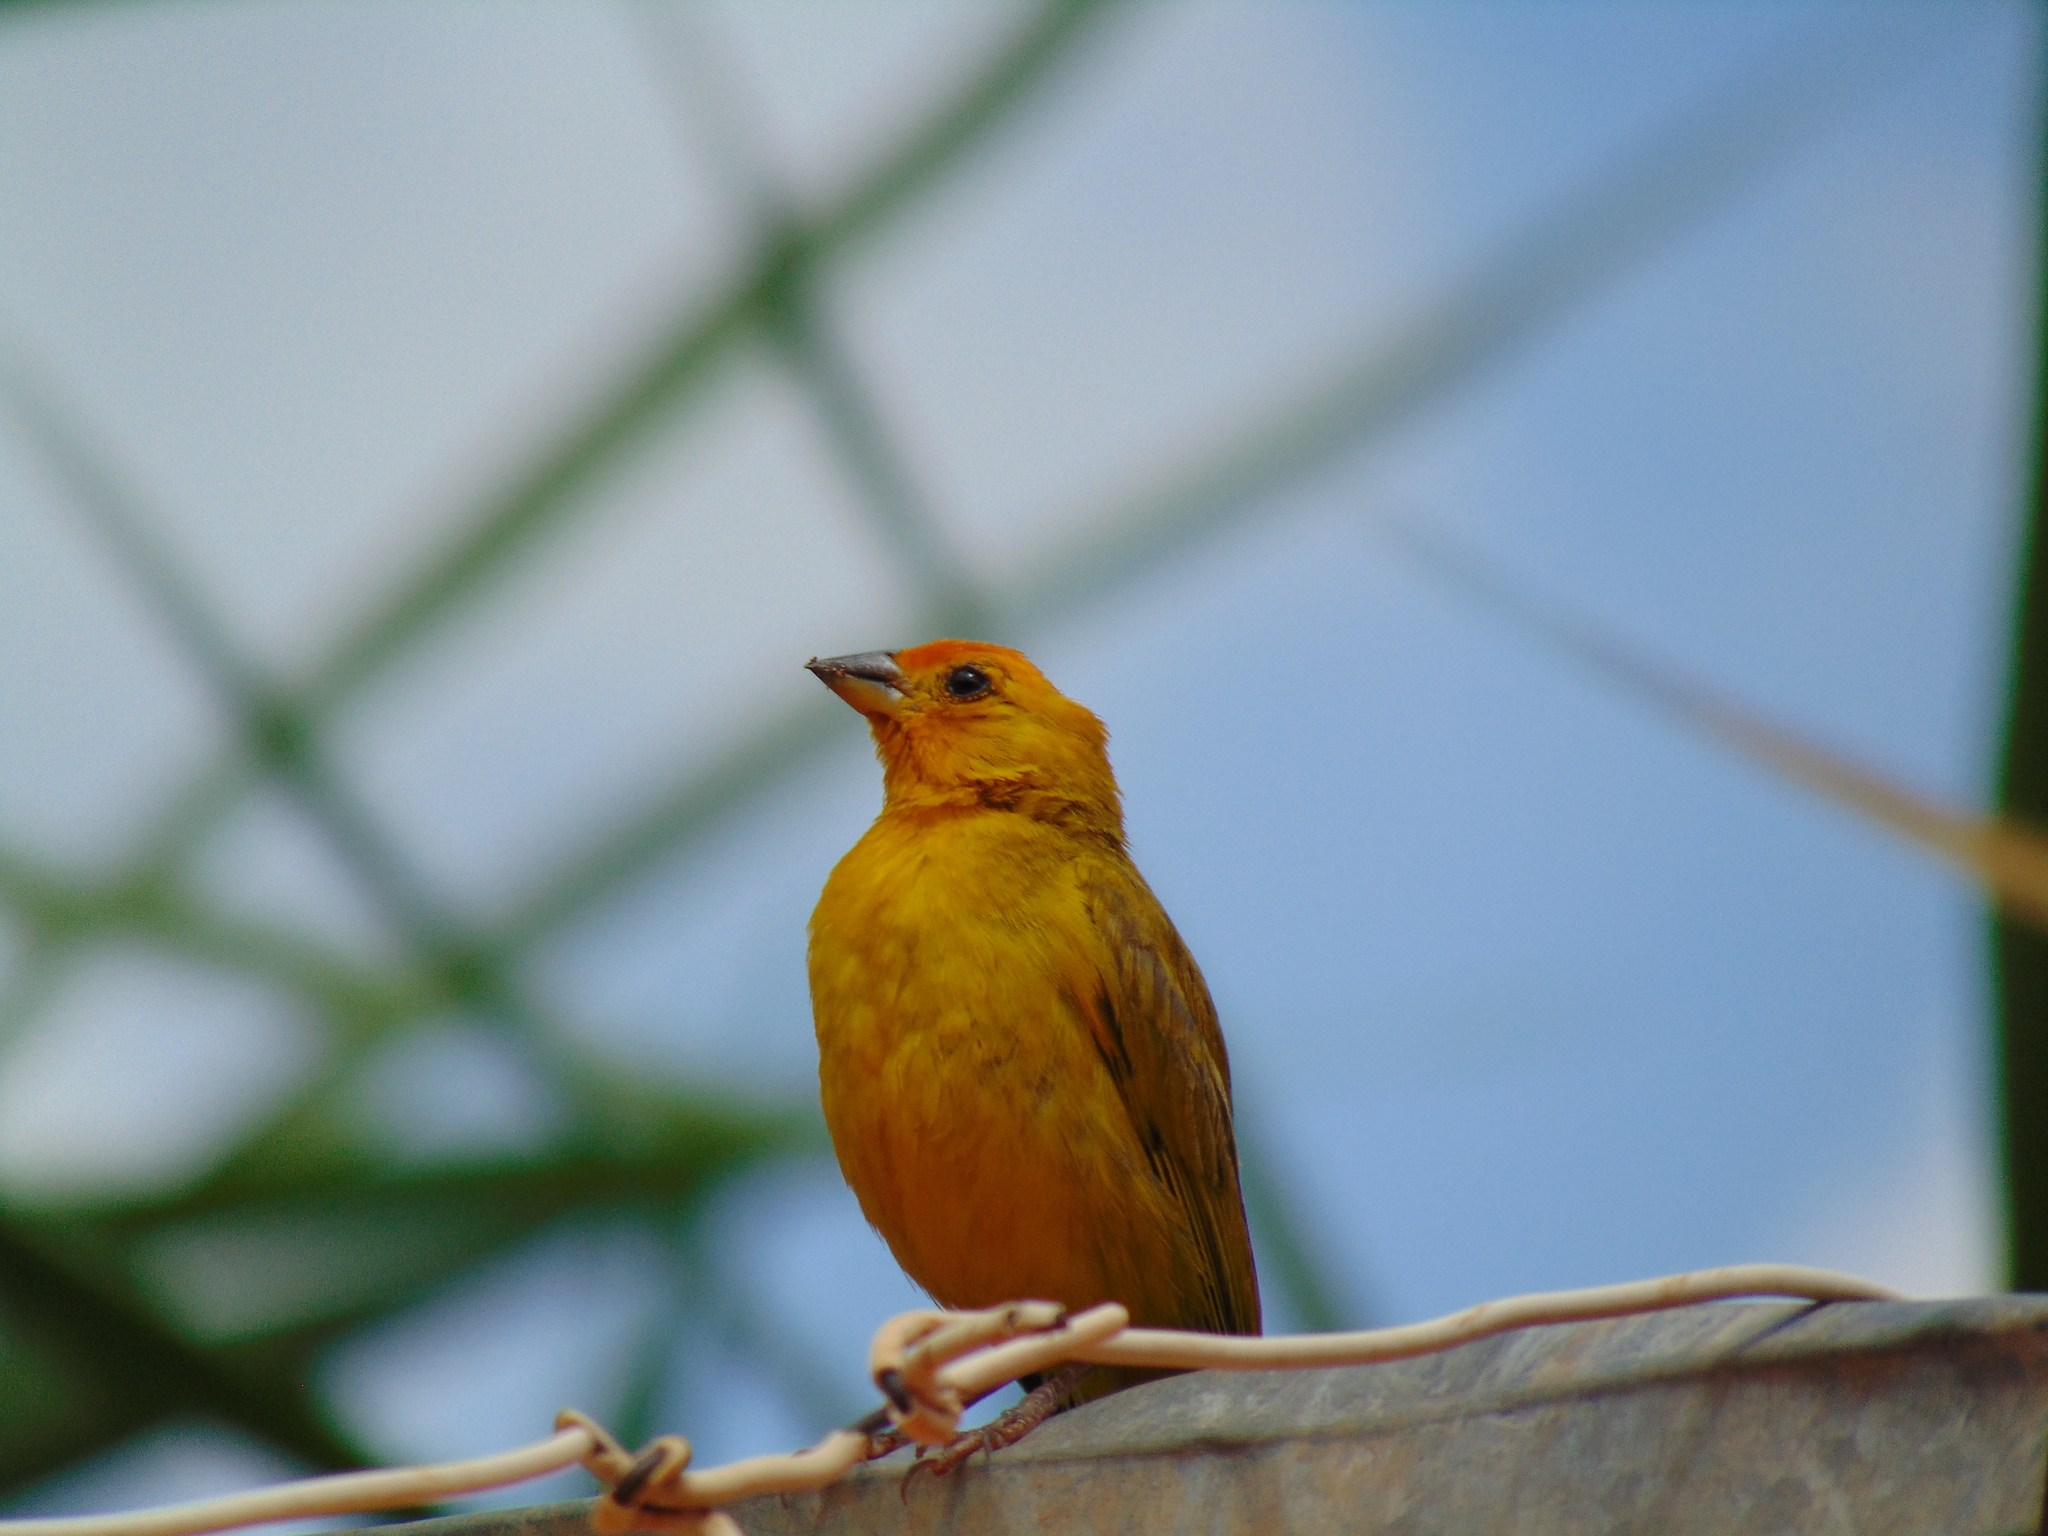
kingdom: Animalia
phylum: Chordata
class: Aves
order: Passeriformes
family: Thraupidae
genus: Sicalis
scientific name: Sicalis flaveola
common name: Saffron finch
